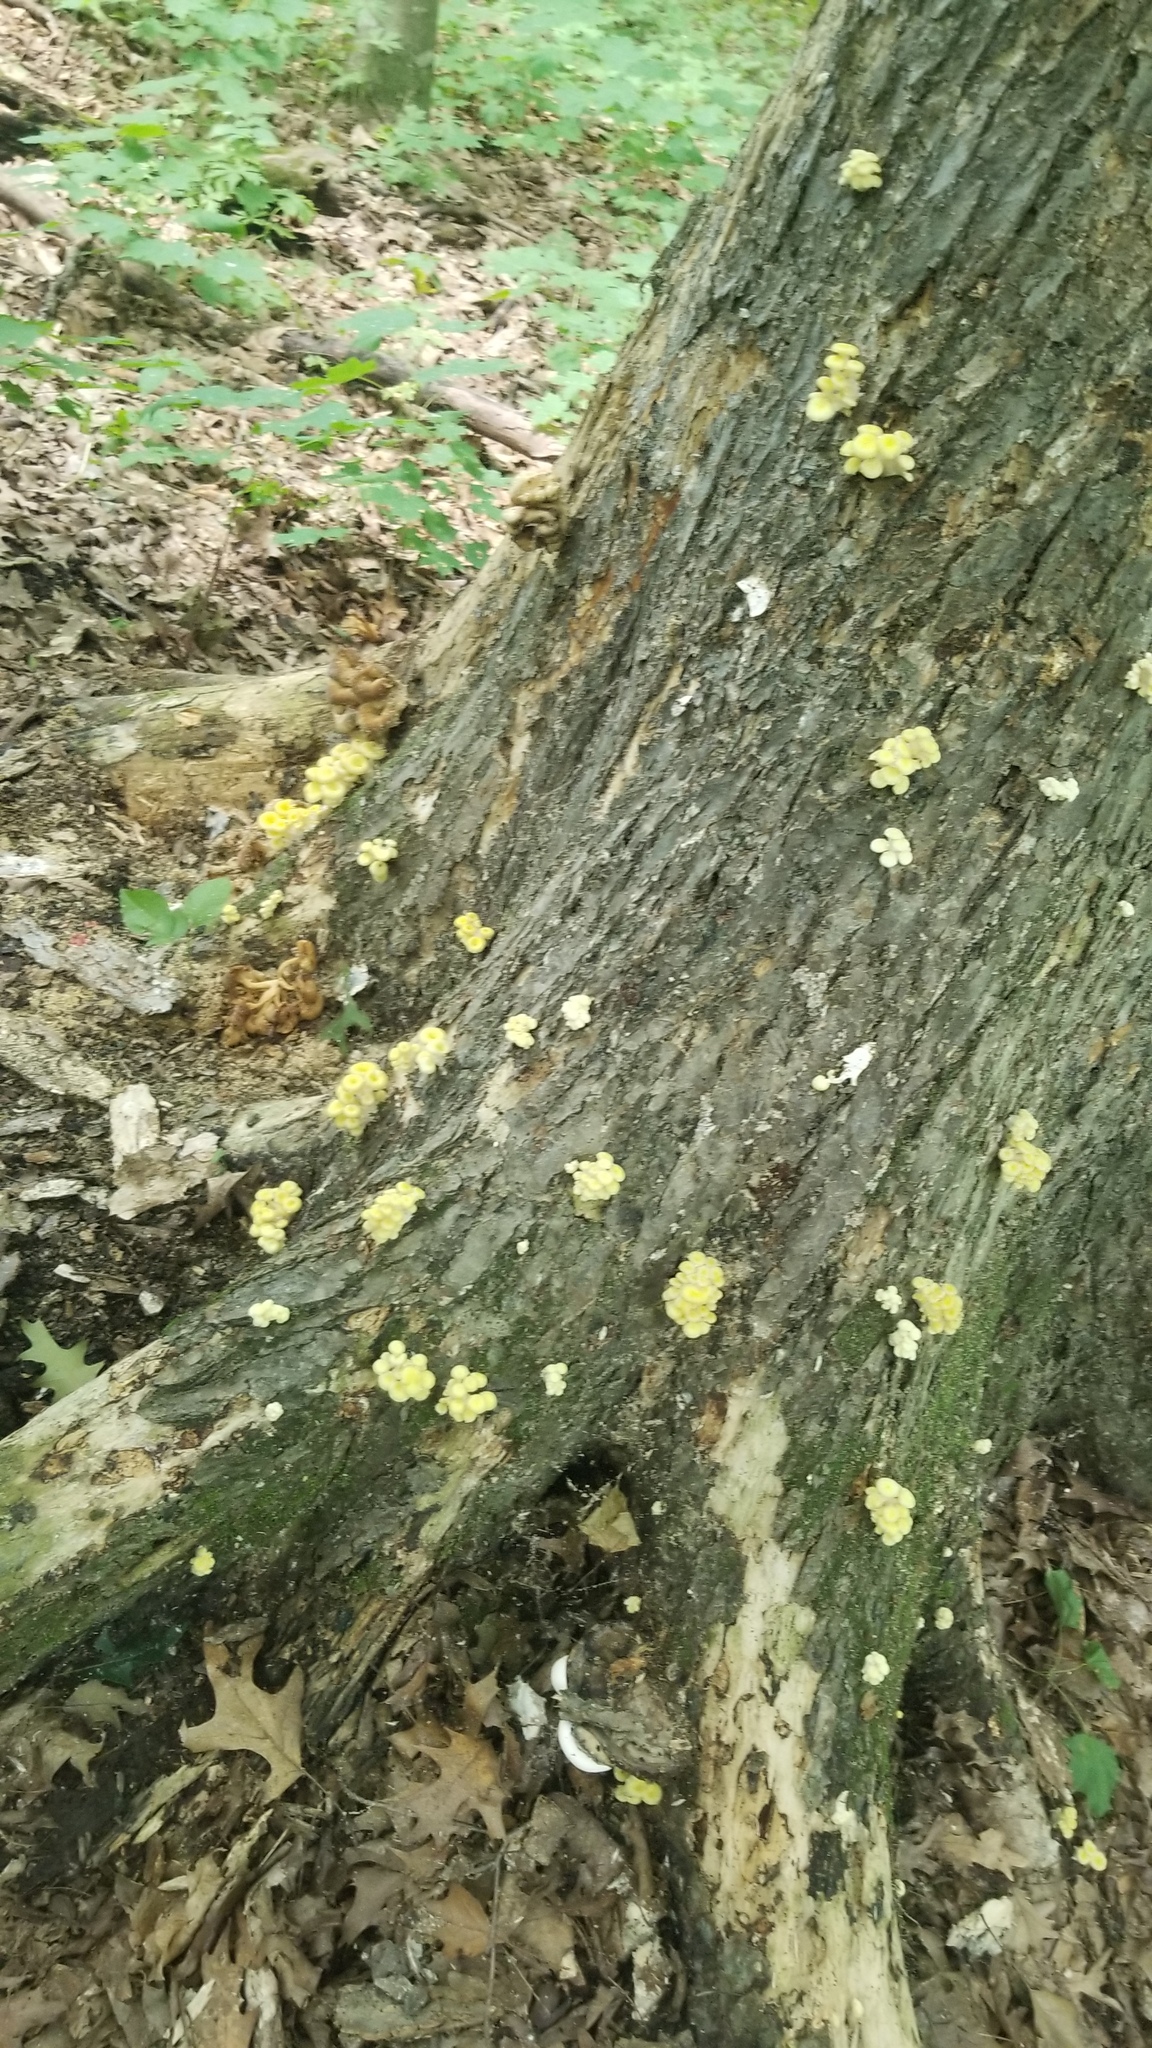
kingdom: Fungi
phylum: Basidiomycota
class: Agaricomycetes
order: Agaricales
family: Pleurotaceae
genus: Pleurotus
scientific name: Pleurotus citrinopileatus
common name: Golden oyster mushroom
